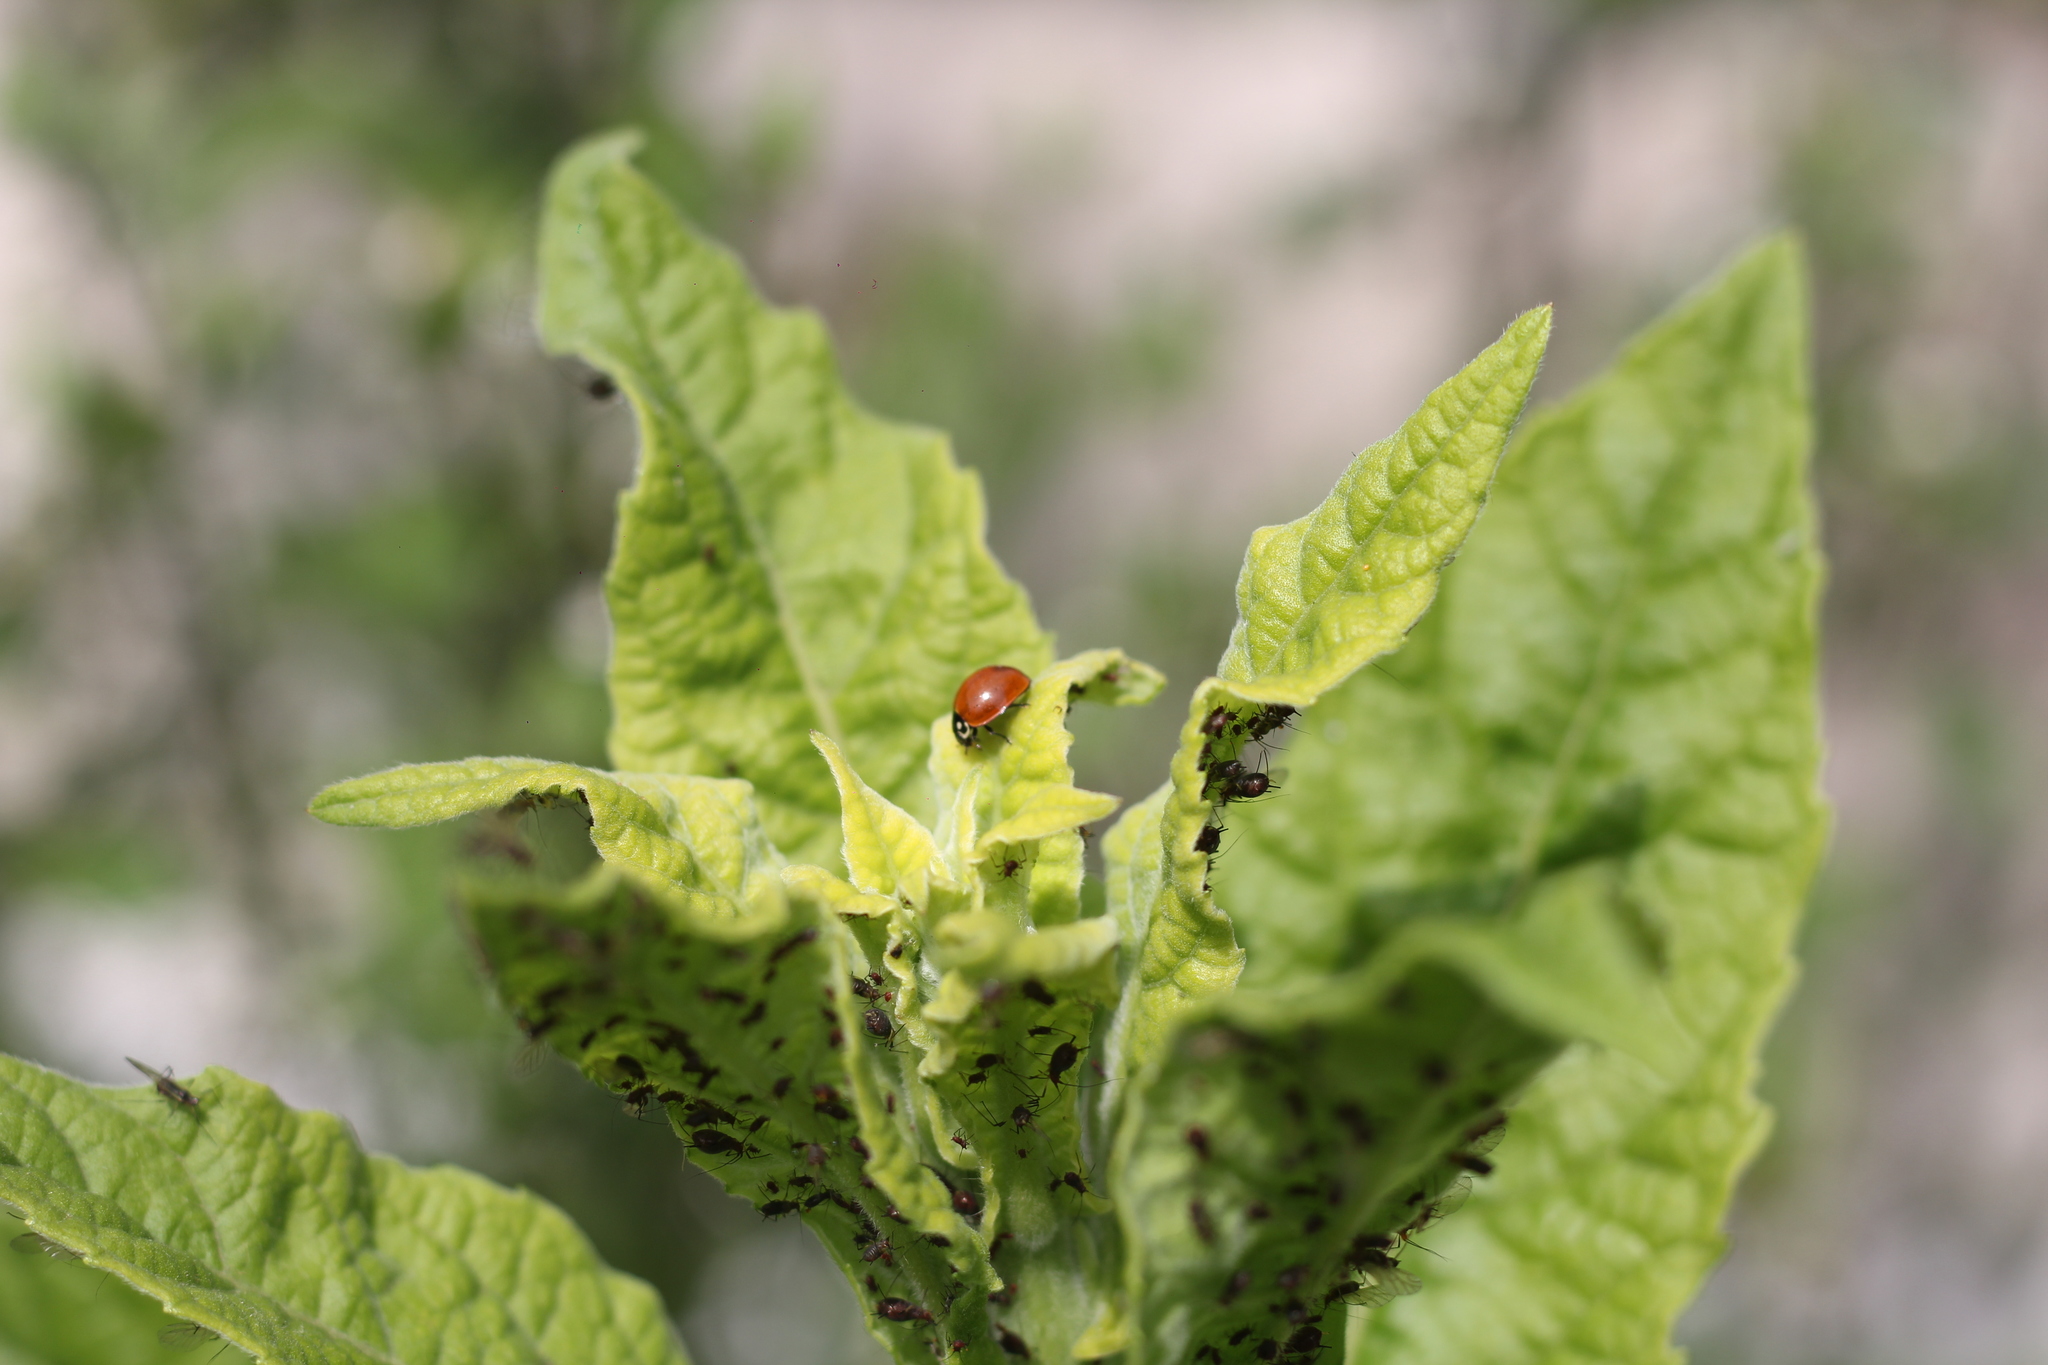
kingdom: Animalia
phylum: Arthropoda
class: Insecta
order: Coleoptera
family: Coccinellidae
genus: Cycloneda
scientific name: Cycloneda sanguinea
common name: Ladybird beetle
